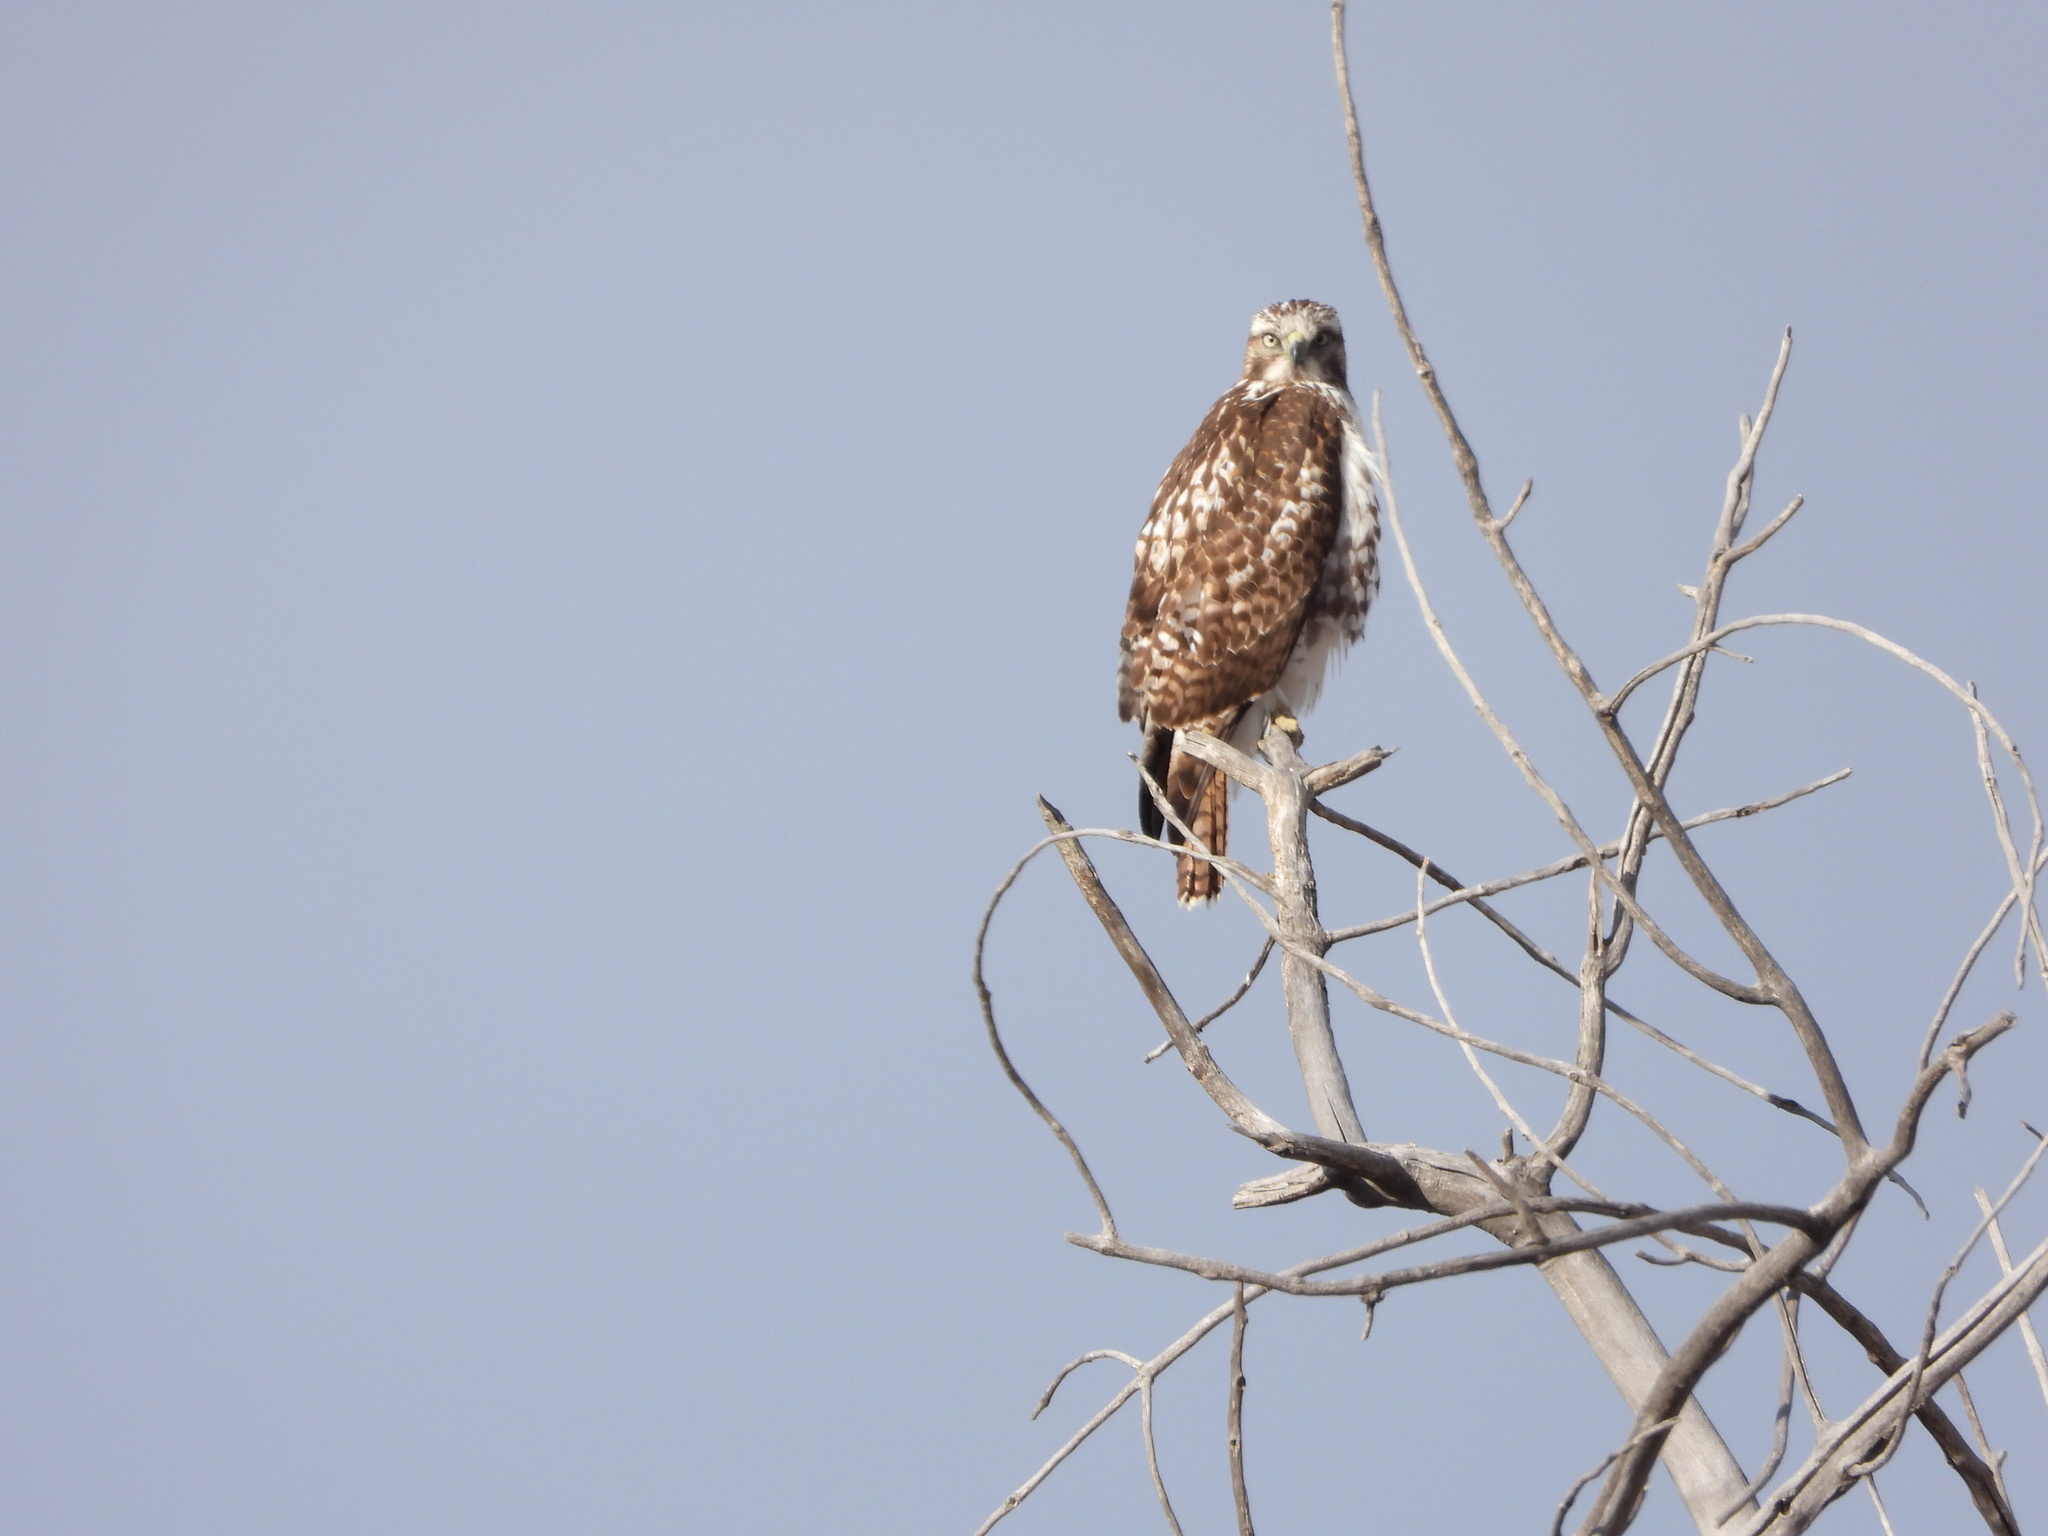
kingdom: Animalia
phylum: Chordata
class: Aves
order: Accipitriformes
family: Accipitridae
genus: Buteo
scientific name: Buteo jamaicensis
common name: Red-tailed hawk
